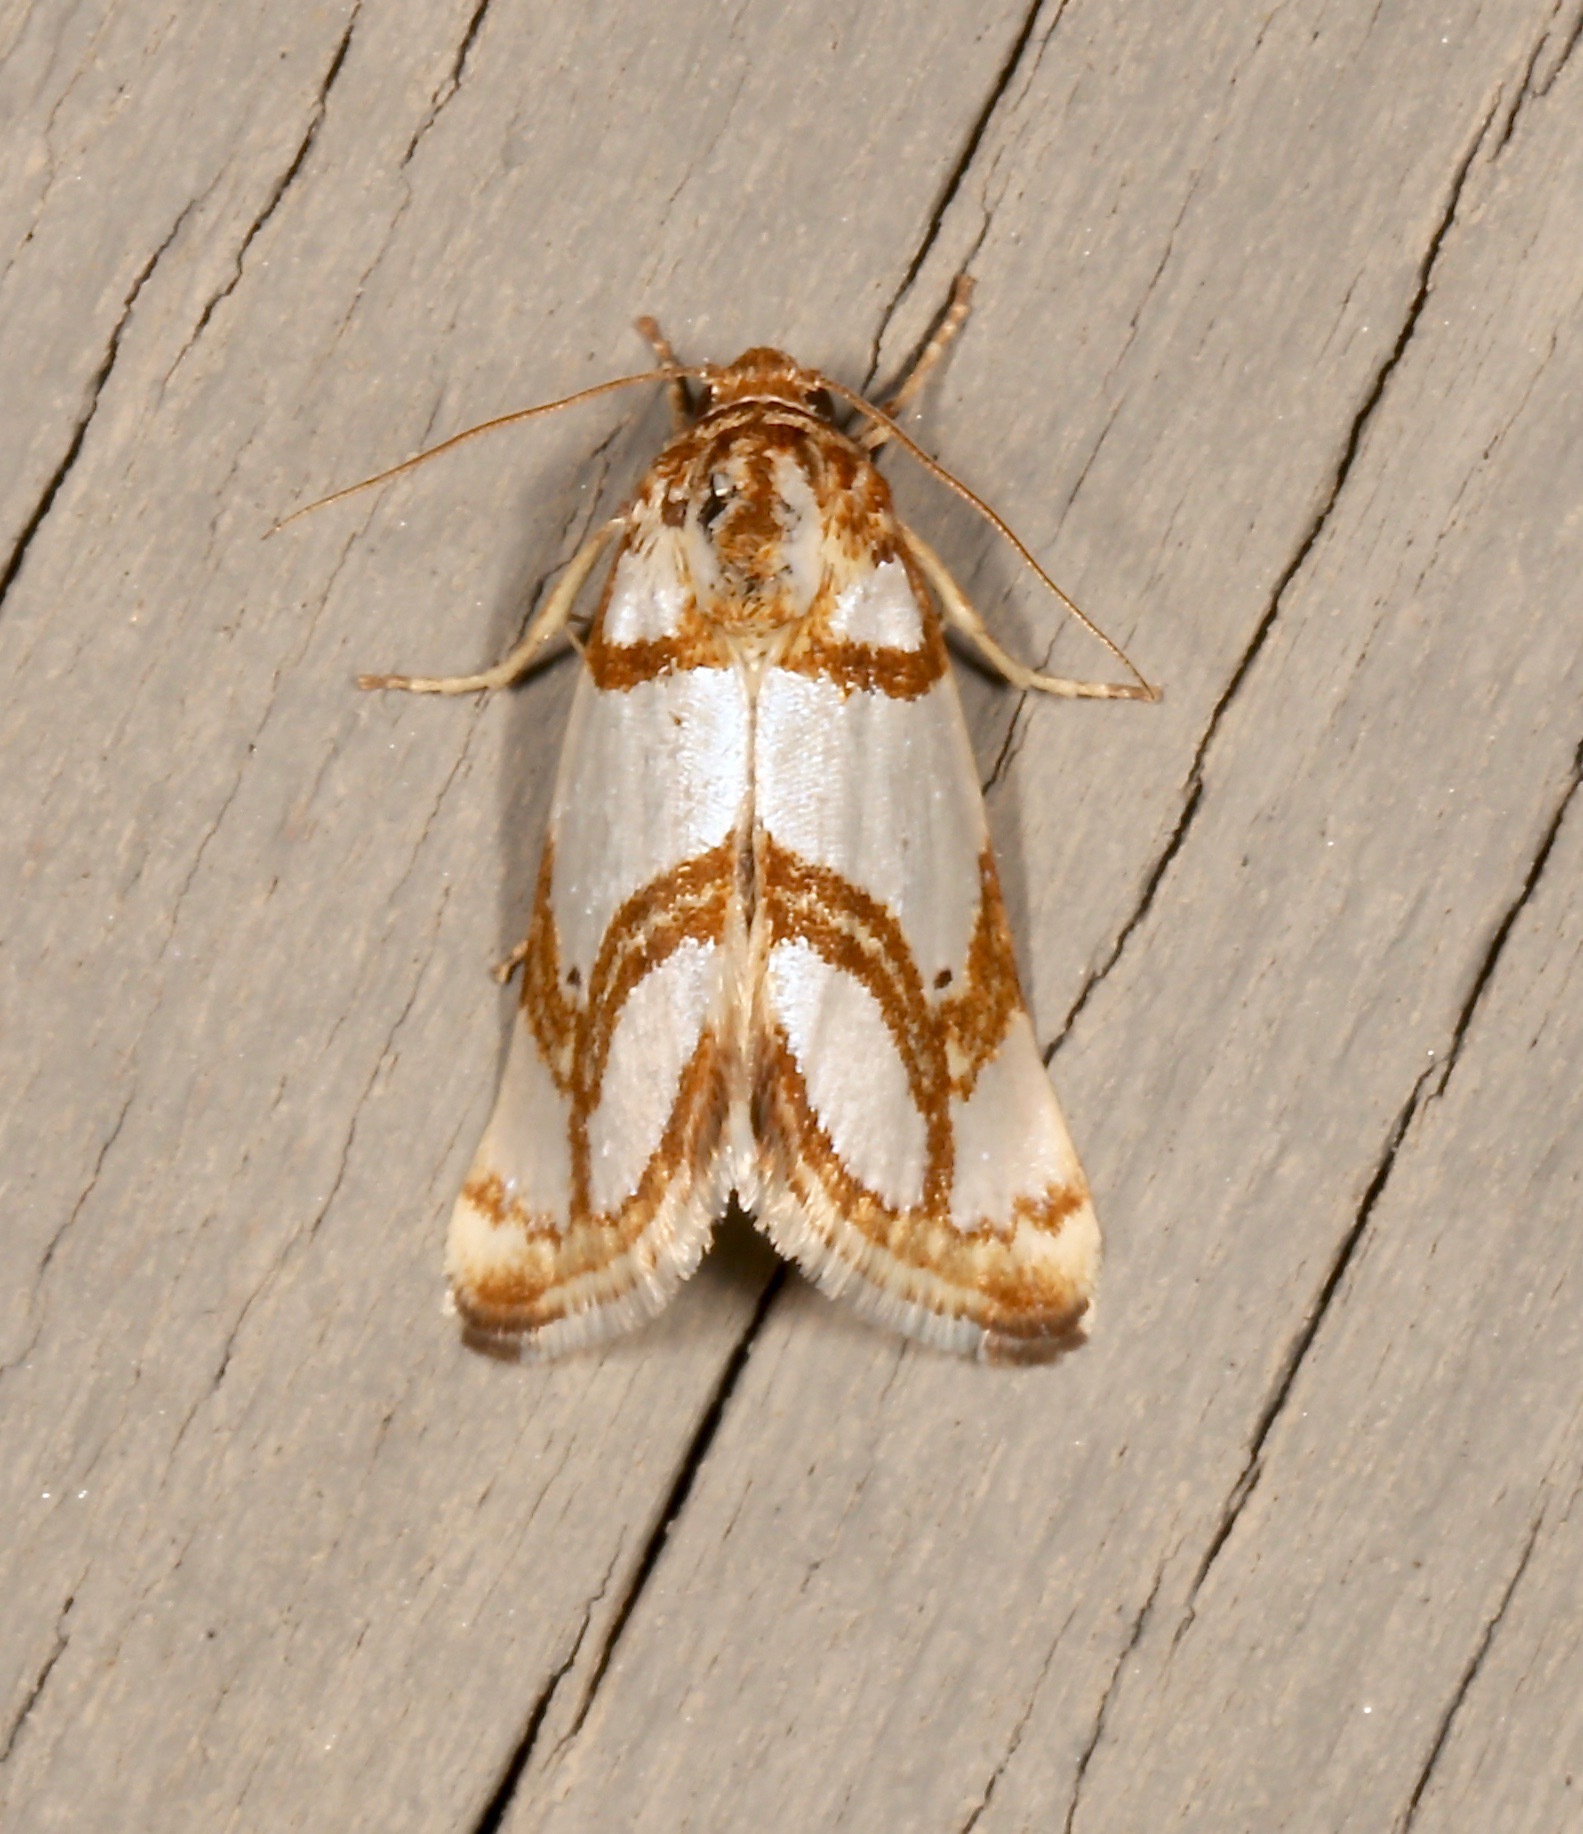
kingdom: Animalia
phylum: Arthropoda
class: Insecta
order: Lepidoptera
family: Noctuidae
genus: Argentostiria
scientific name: Argentostiria koebelei
